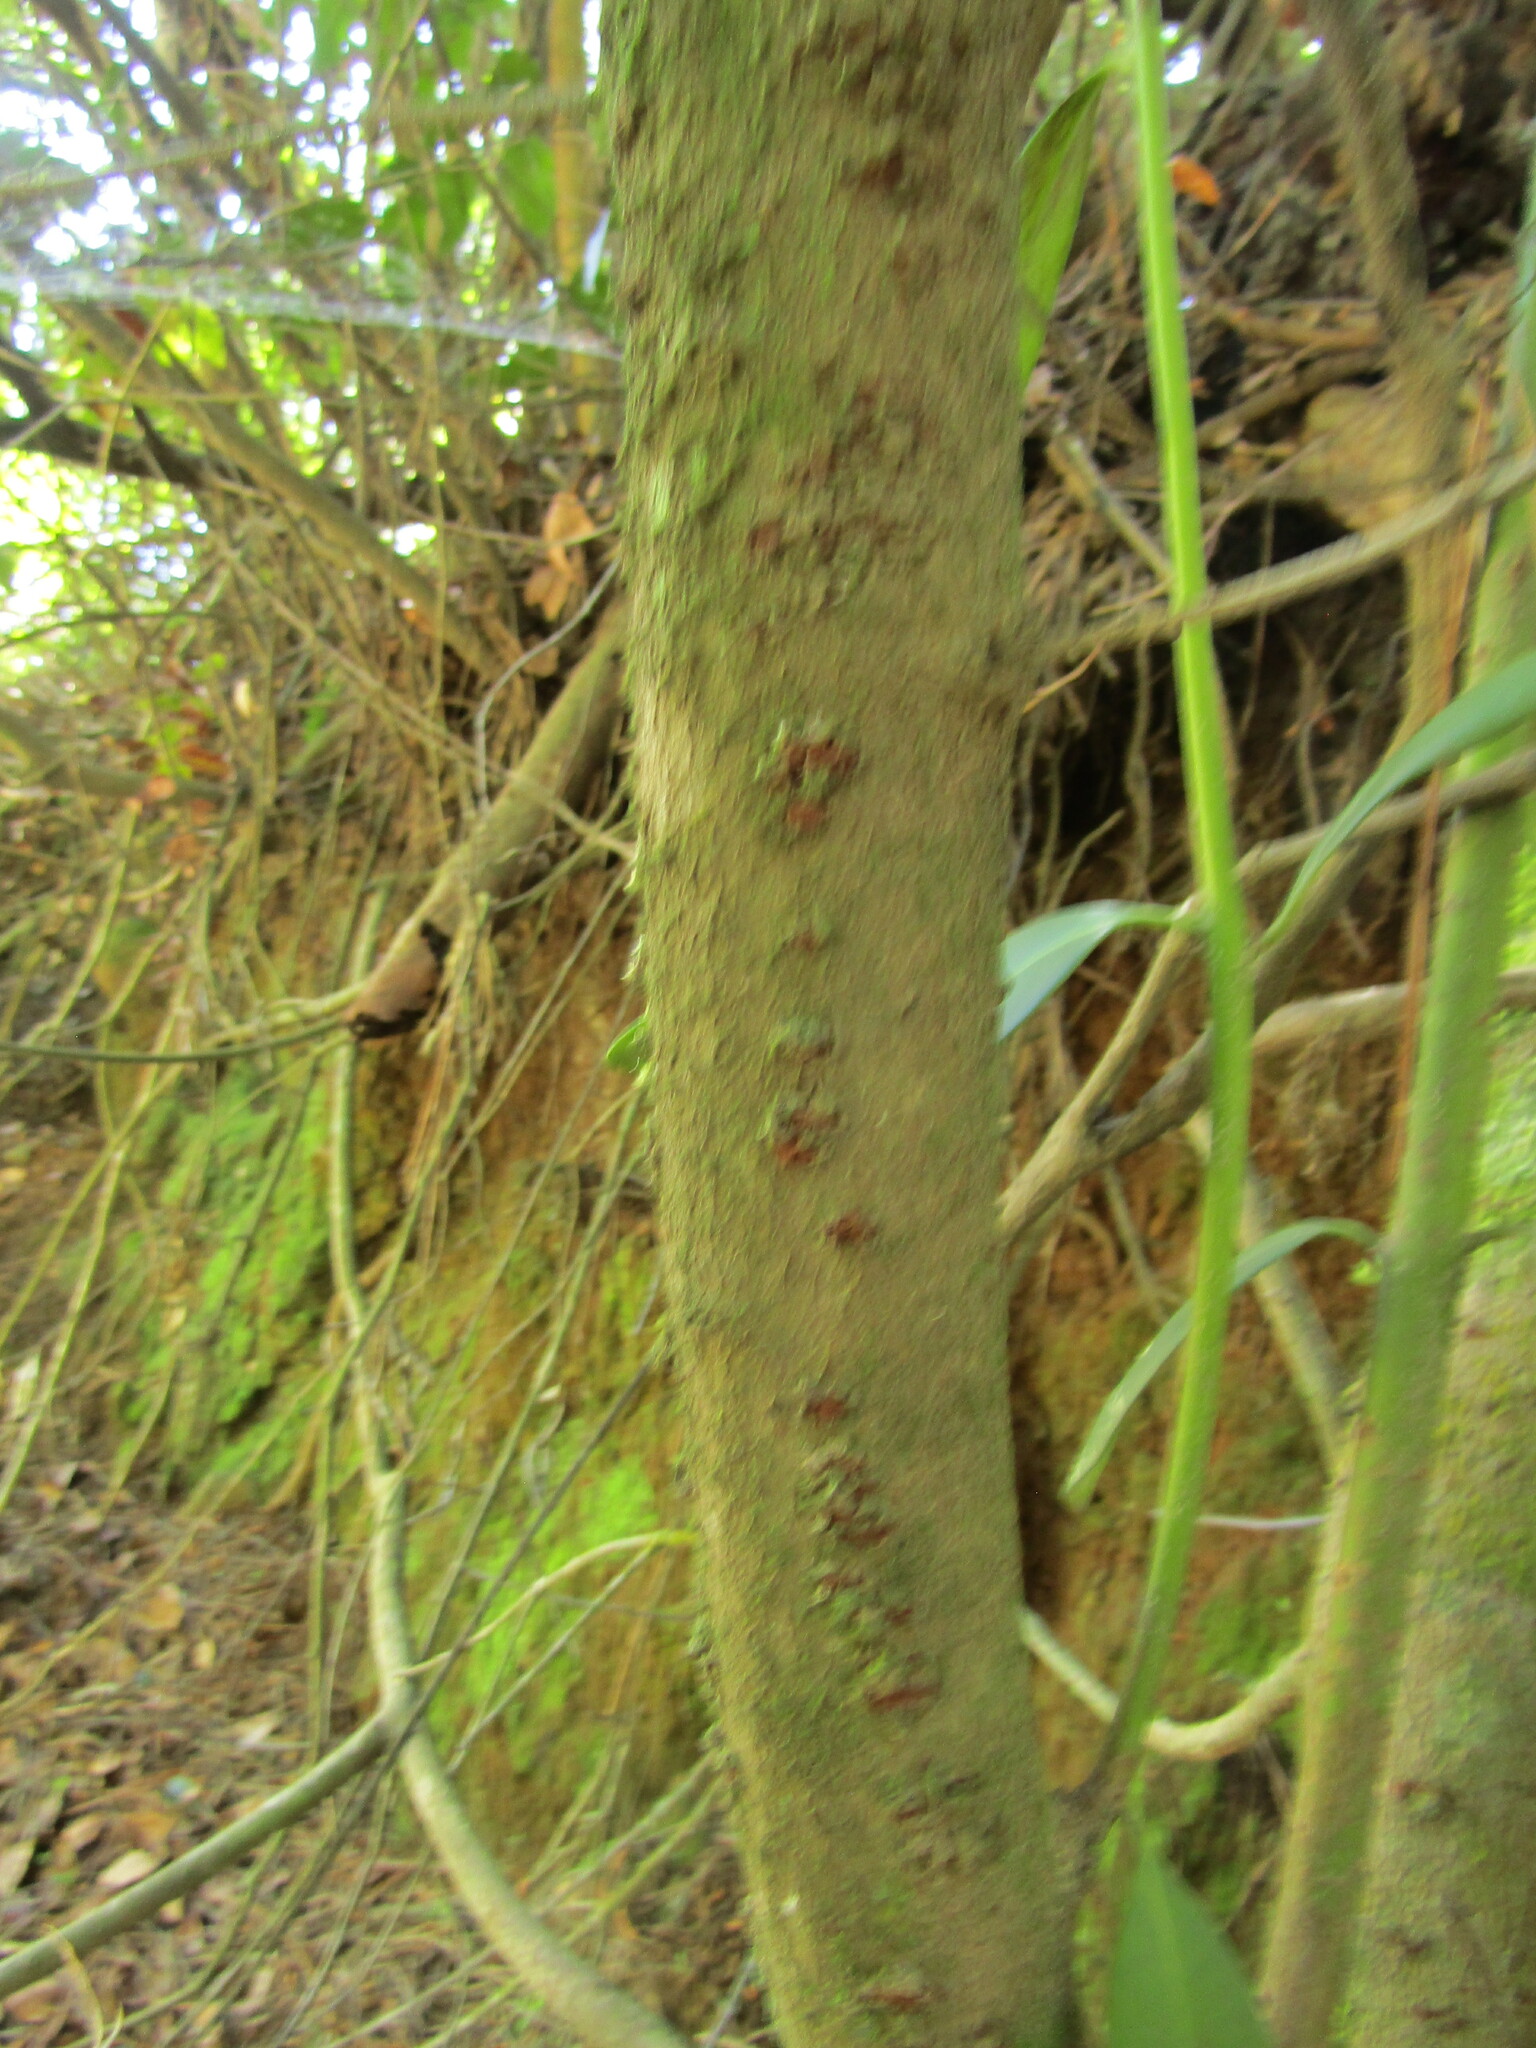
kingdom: Plantae
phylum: Tracheophyta
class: Magnoliopsida
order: Laurales
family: Gomortegaceae
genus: Gomortega
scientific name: Gomortega keule
